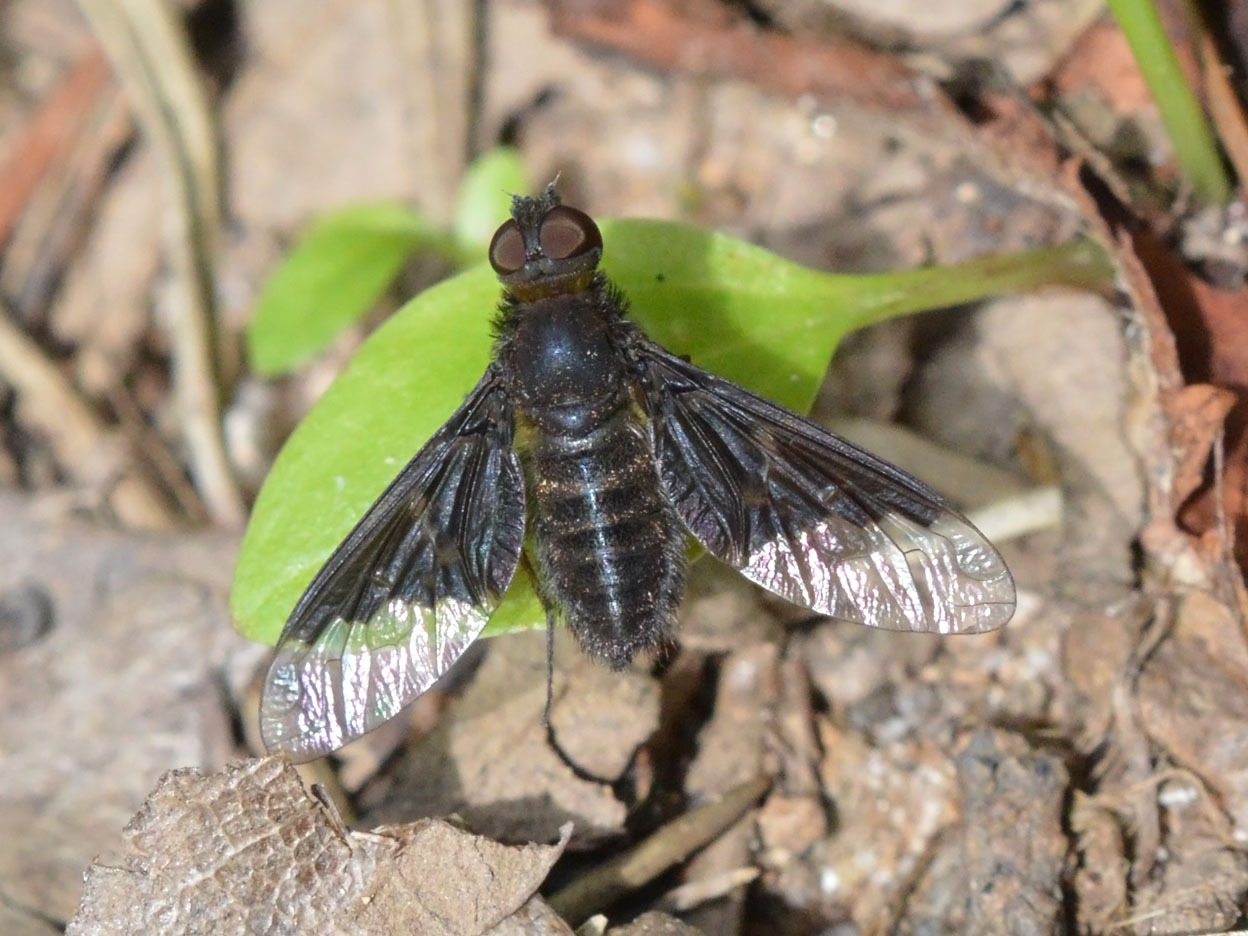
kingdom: Animalia
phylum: Arthropoda
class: Insecta
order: Diptera
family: Bombyliidae
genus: Hemipenthes
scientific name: Hemipenthes morio
